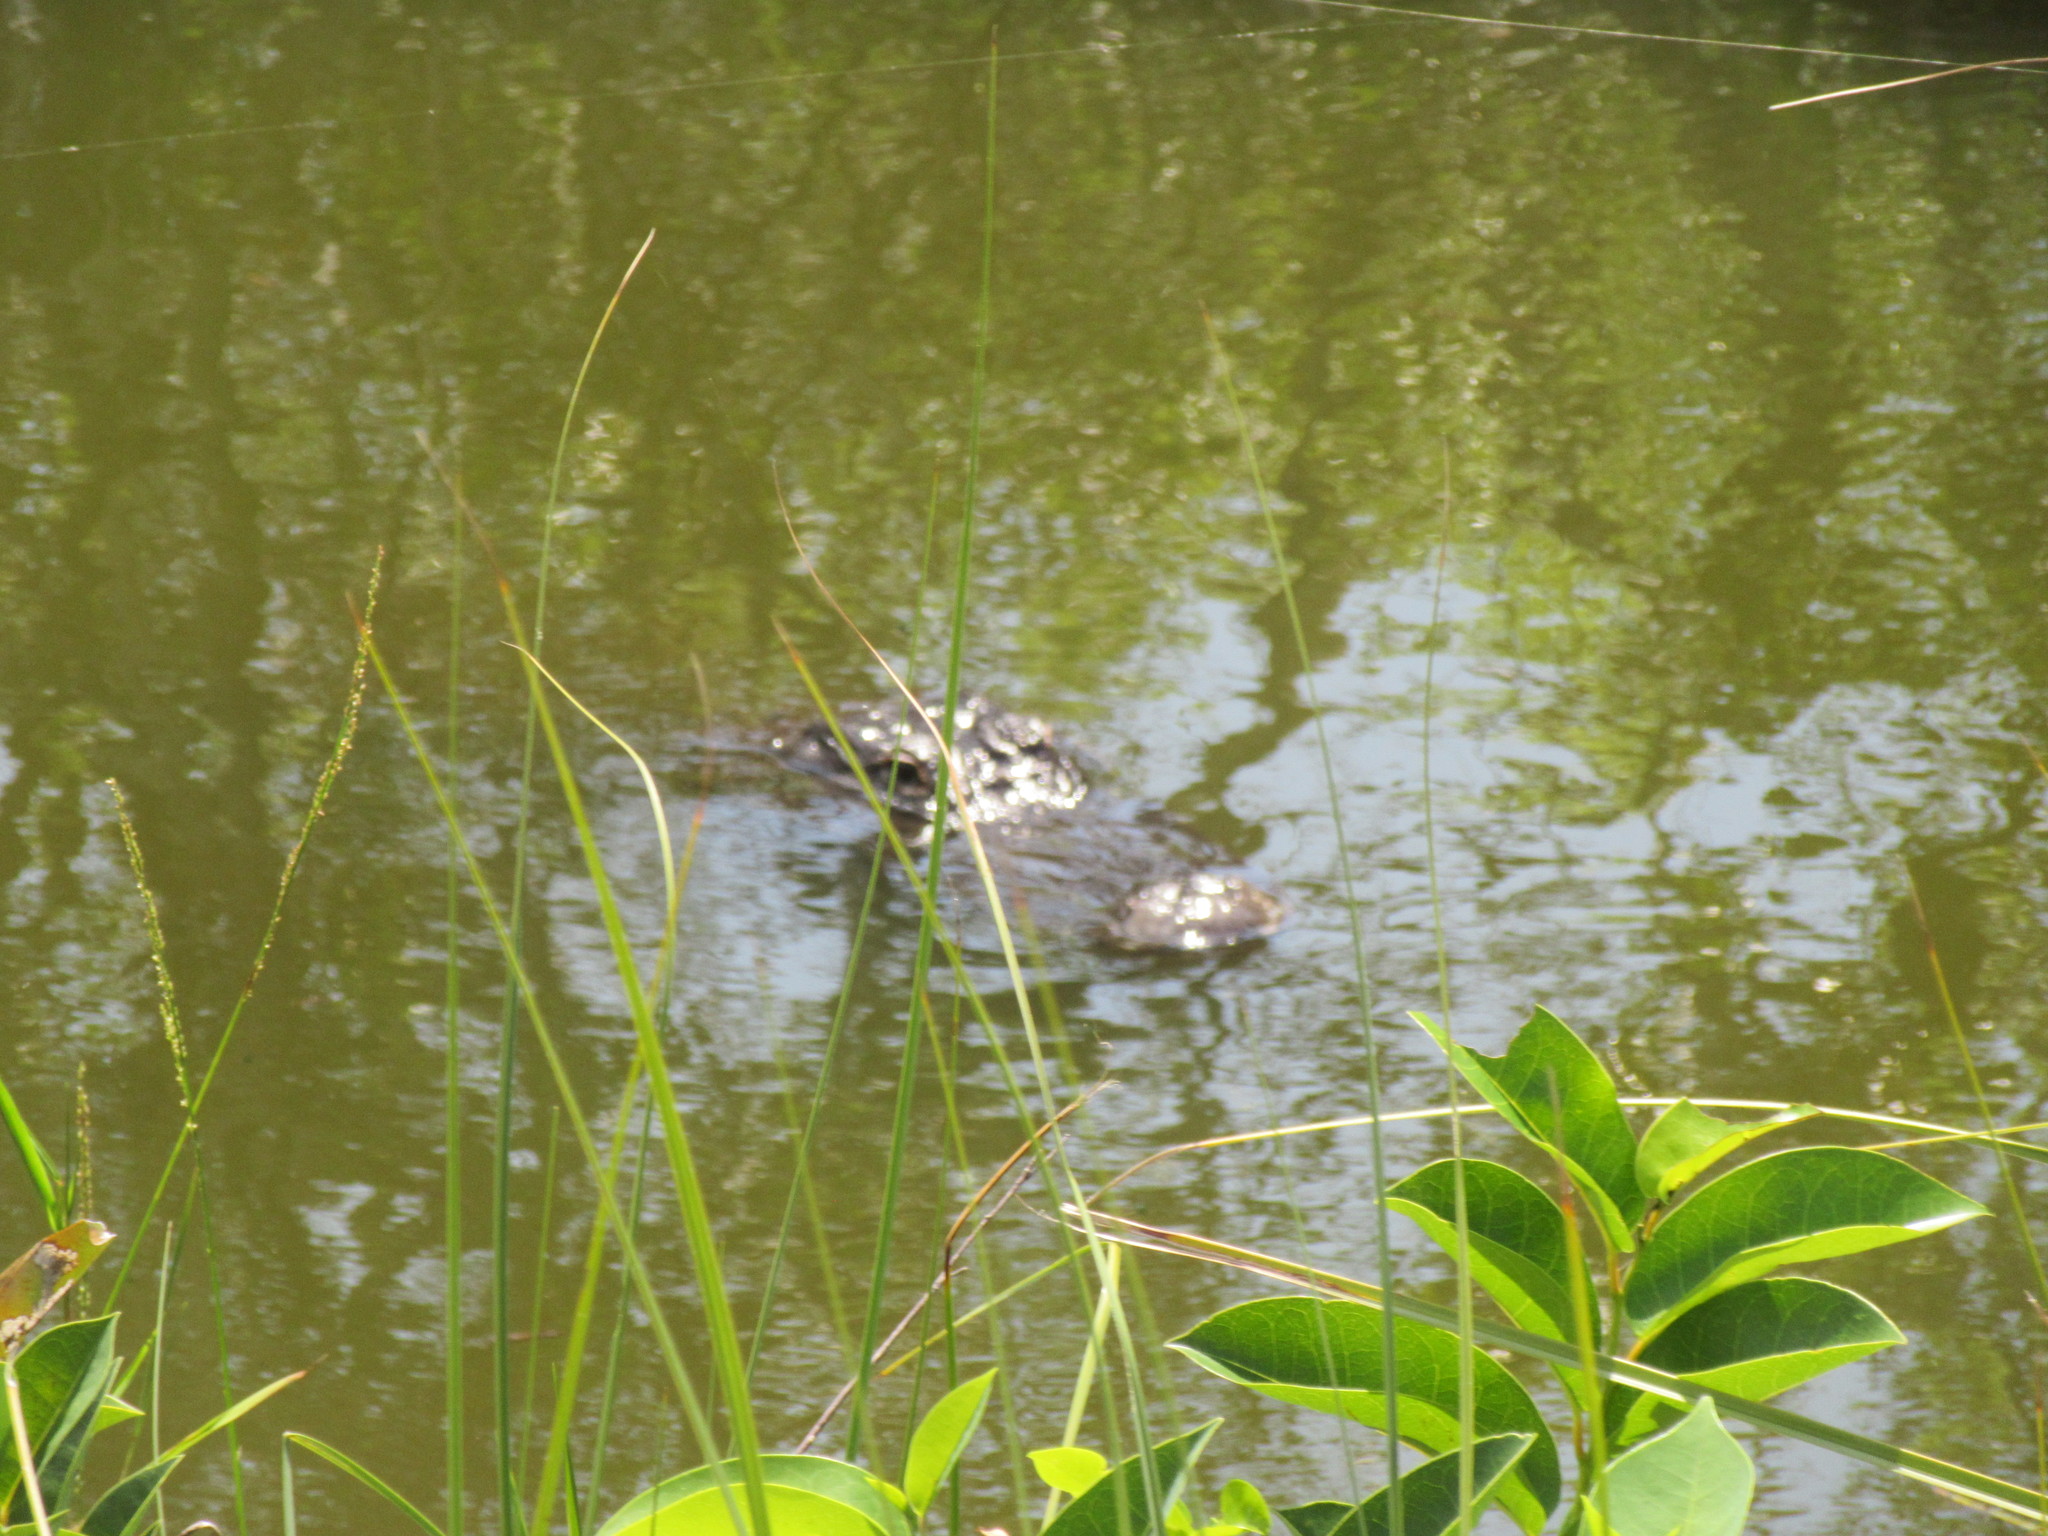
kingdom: Animalia
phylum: Chordata
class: Crocodylia
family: Alligatoridae
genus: Alligator
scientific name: Alligator mississippiensis
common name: American alligator
